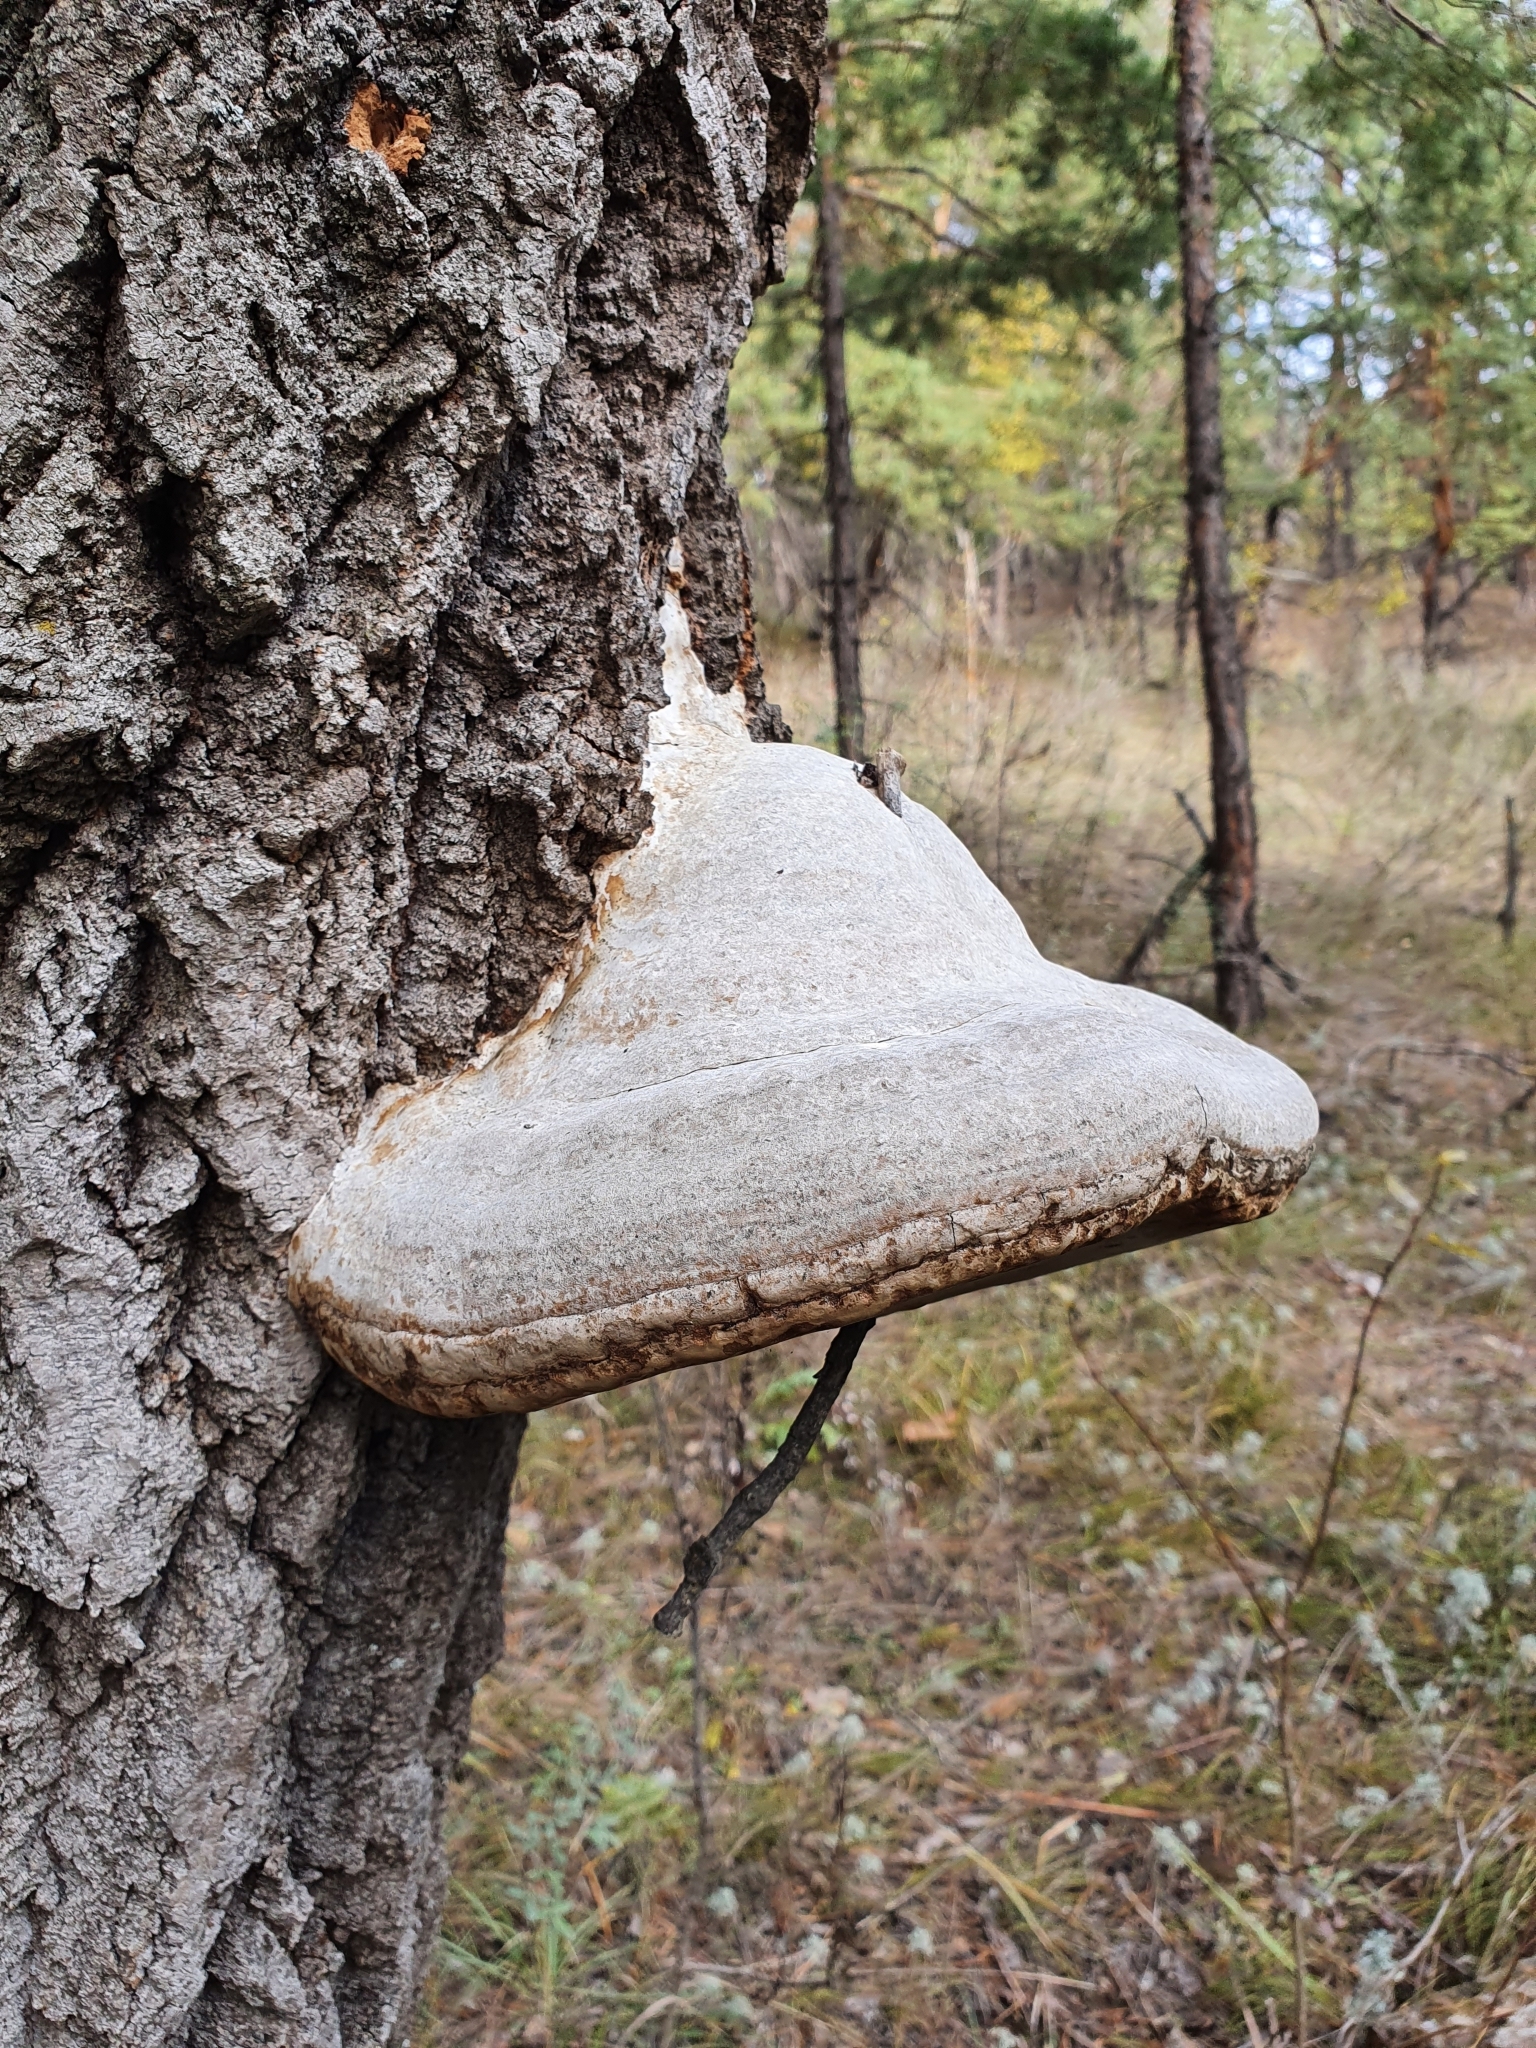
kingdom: Fungi
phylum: Basidiomycota
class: Agaricomycetes
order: Polyporales
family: Polyporaceae
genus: Fomes
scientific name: Fomes fomentarius
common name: Hoof fungus
